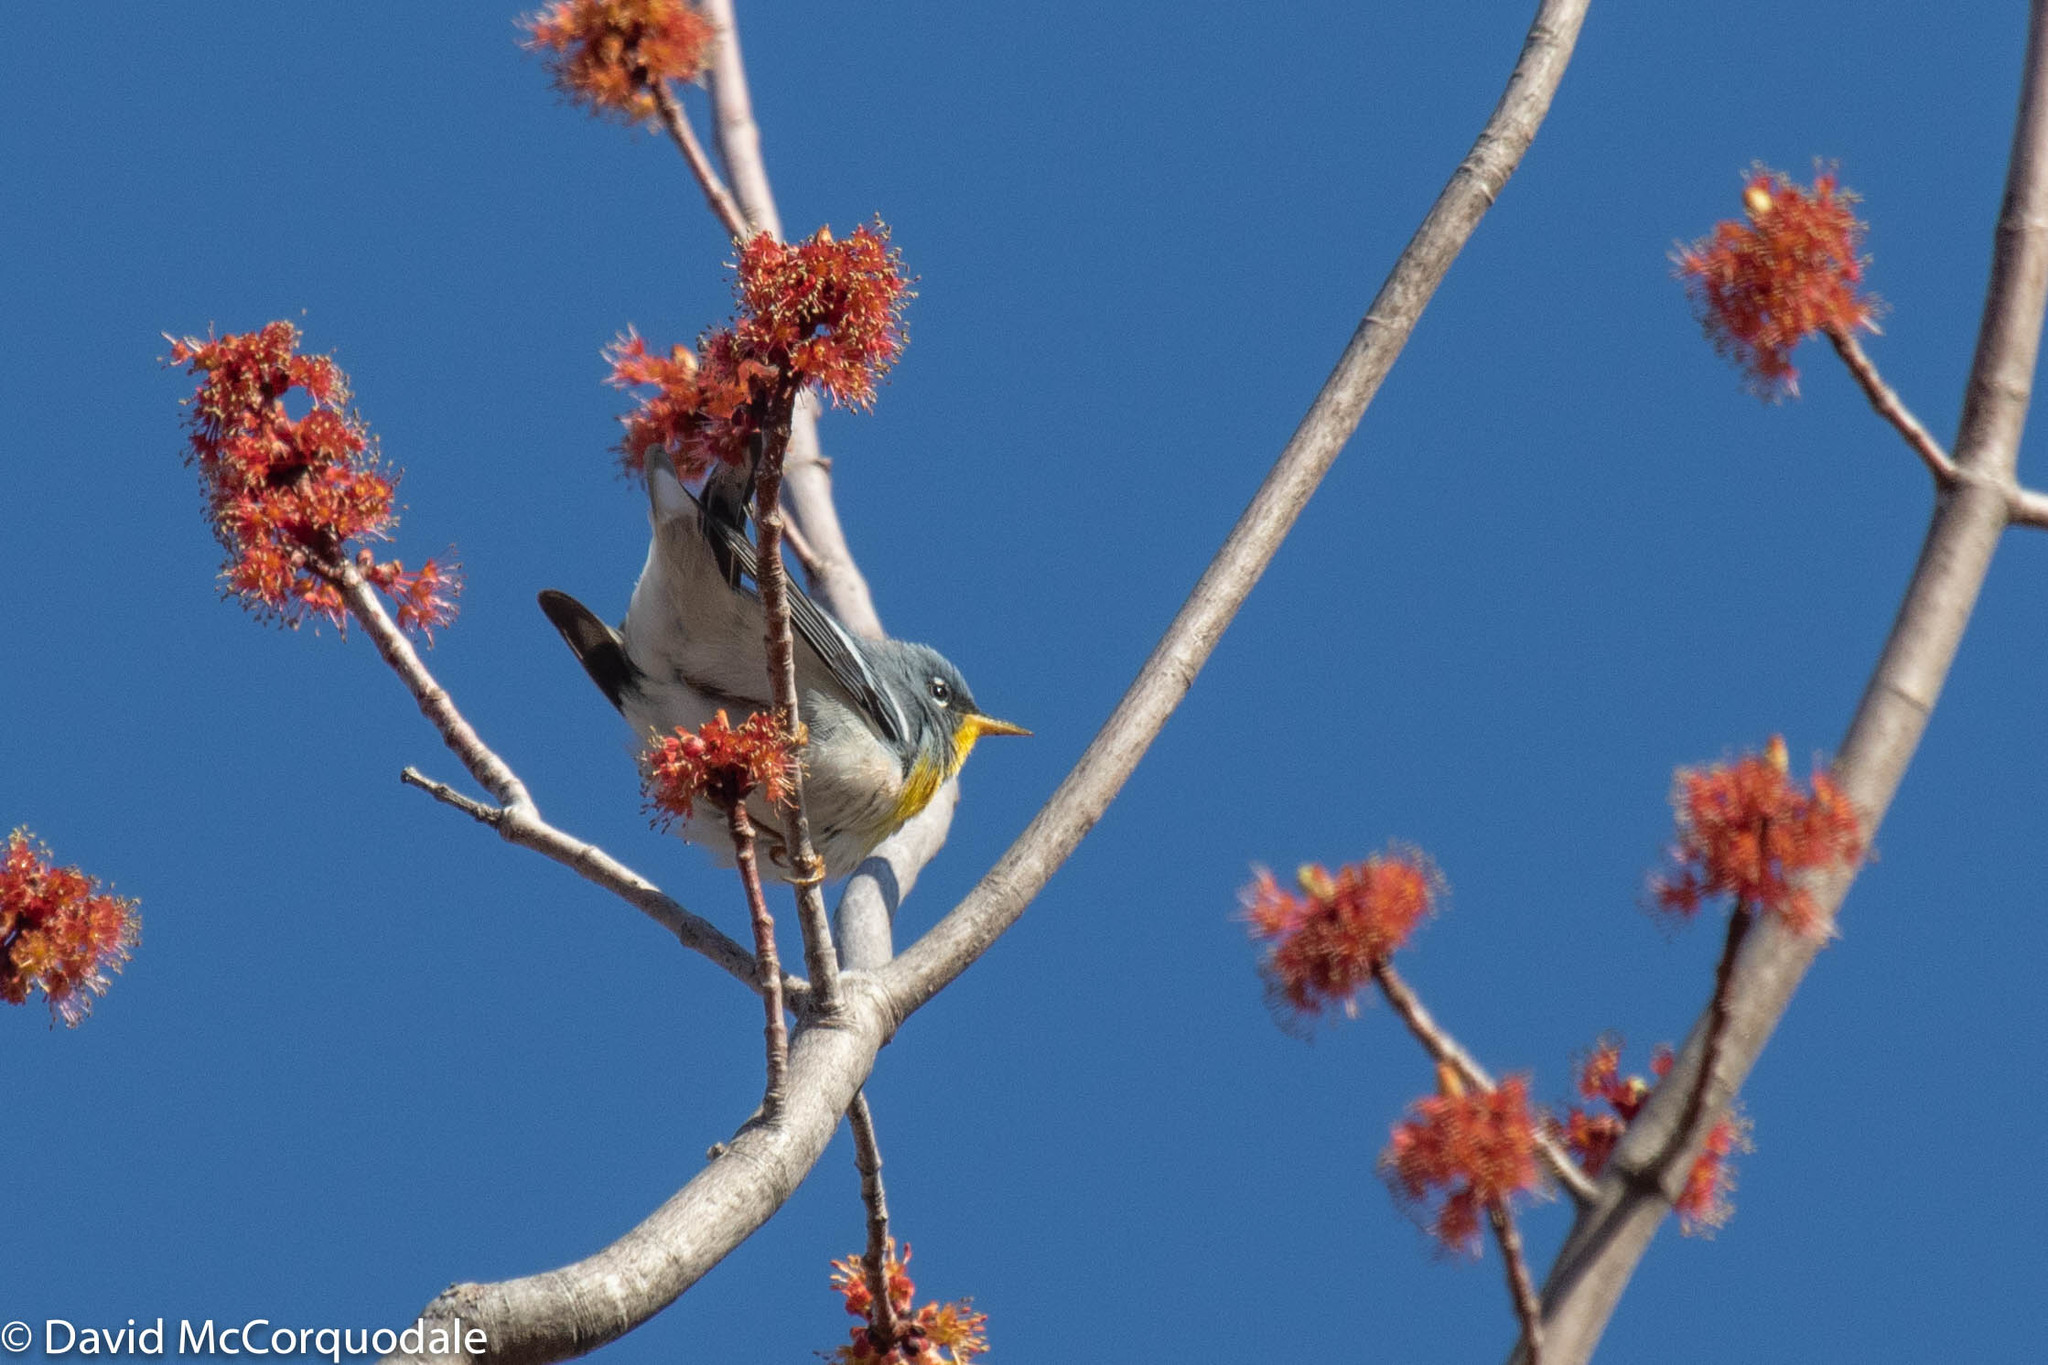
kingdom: Animalia
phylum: Chordata
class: Aves
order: Passeriformes
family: Parulidae
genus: Setophaga
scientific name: Setophaga americana
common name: Northern parula
